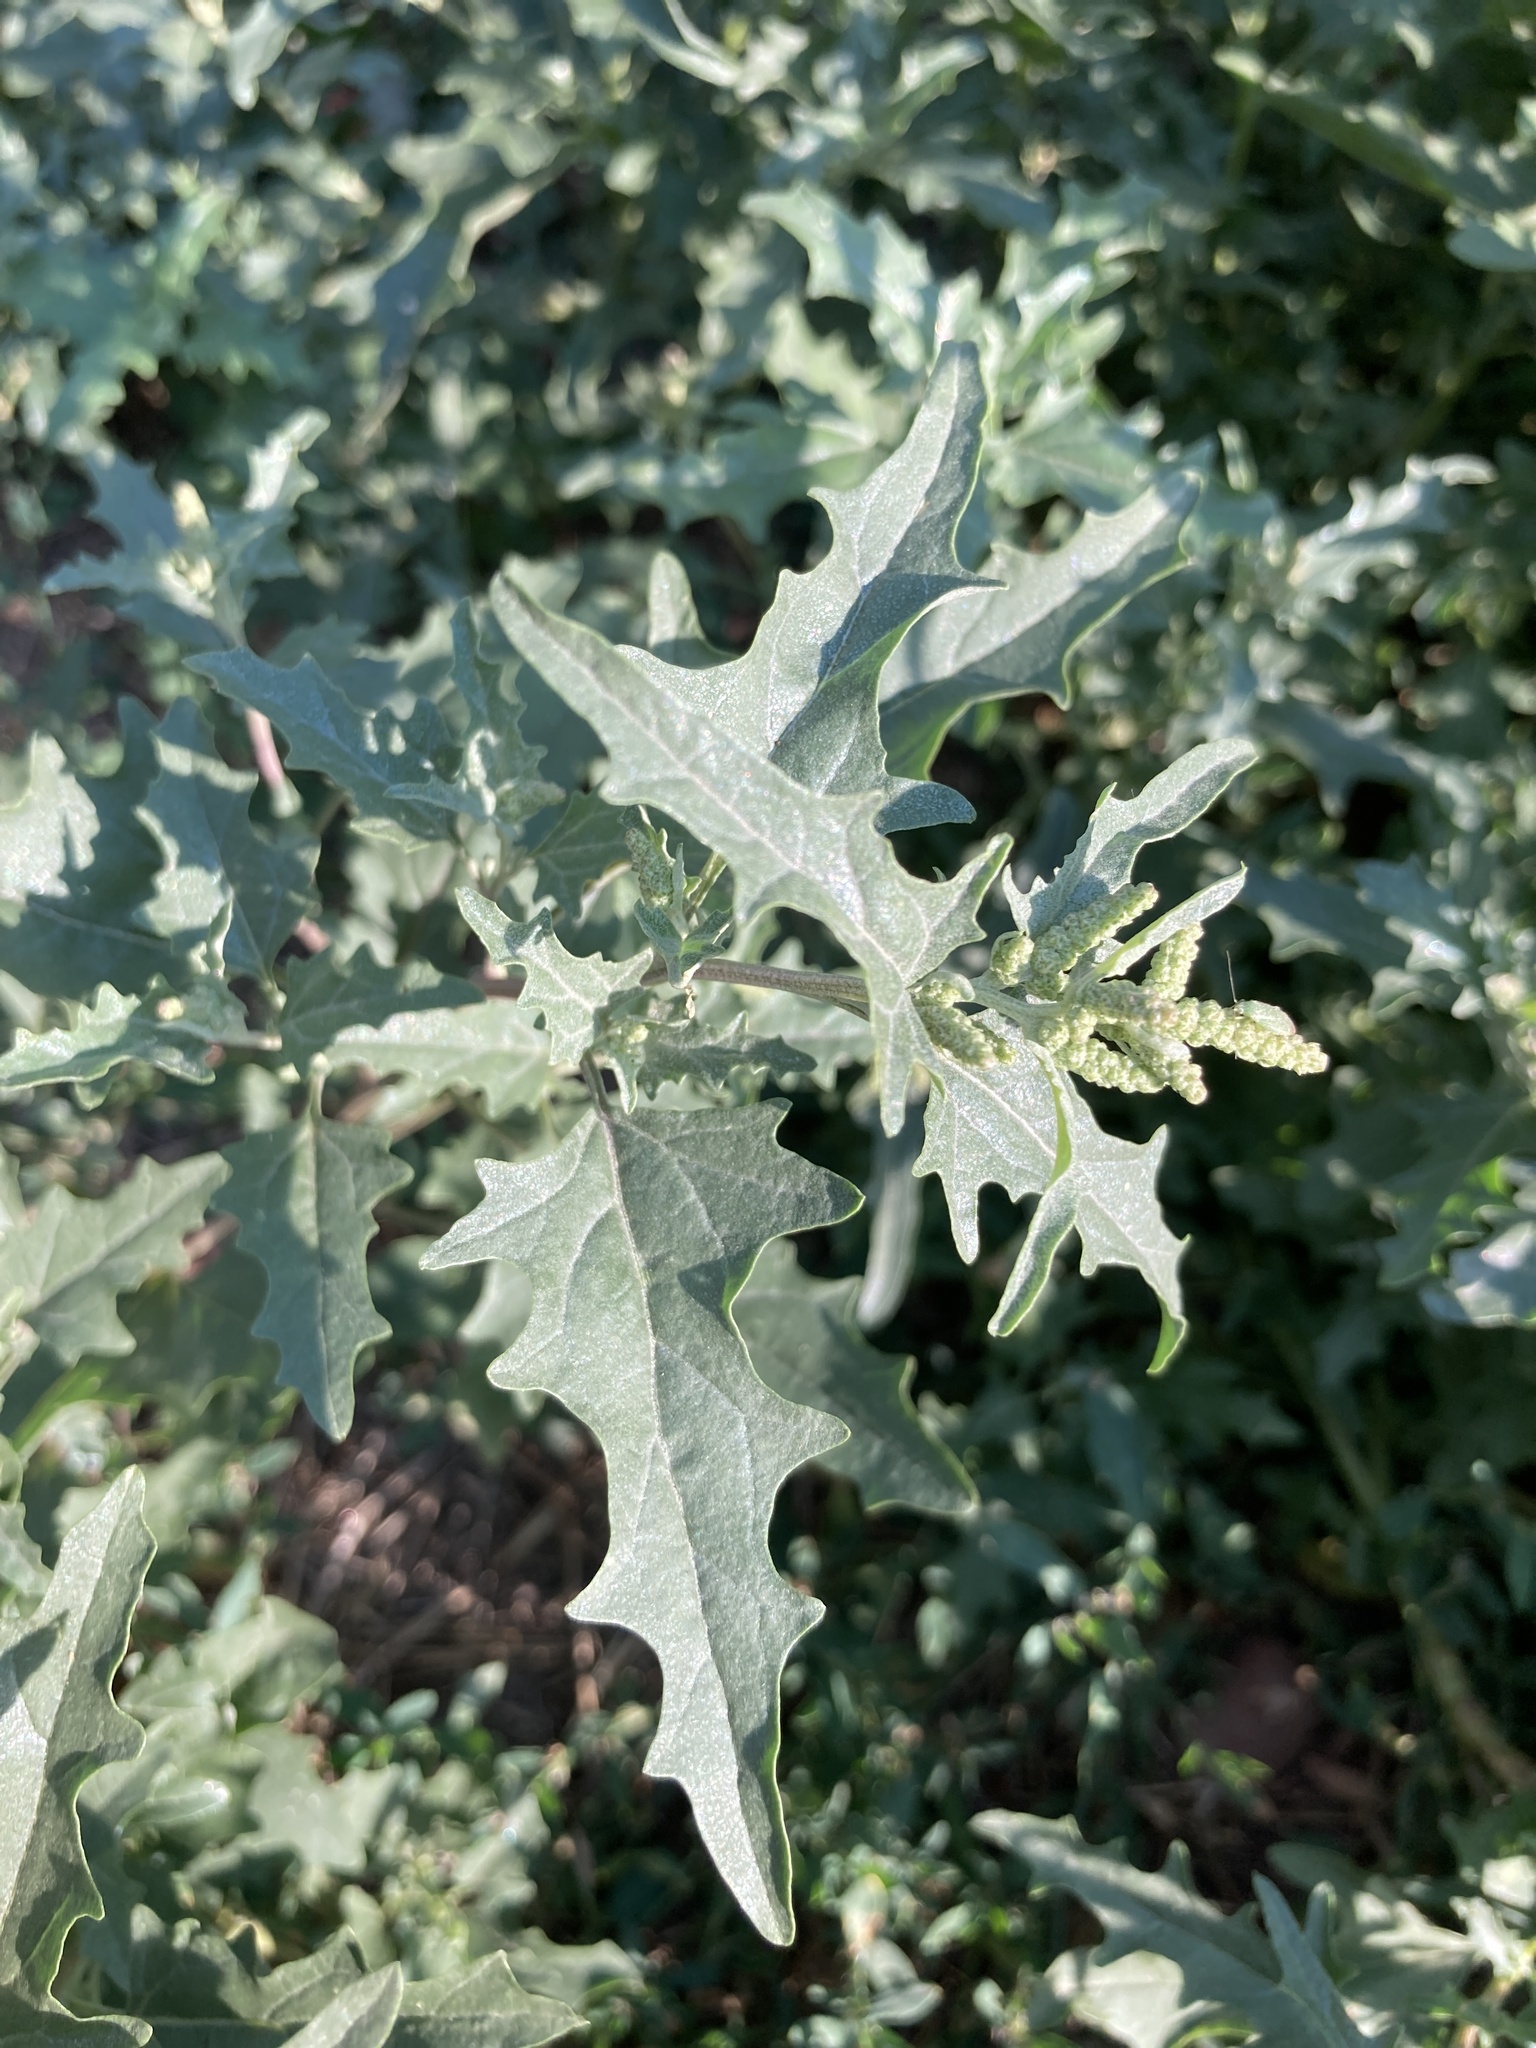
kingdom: Plantae
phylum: Tracheophyta
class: Magnoliopsida
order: Caryophyllales
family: Amaranthaceae
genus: Atriplex
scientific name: Atriplex tatarica
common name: Tatarian orache
